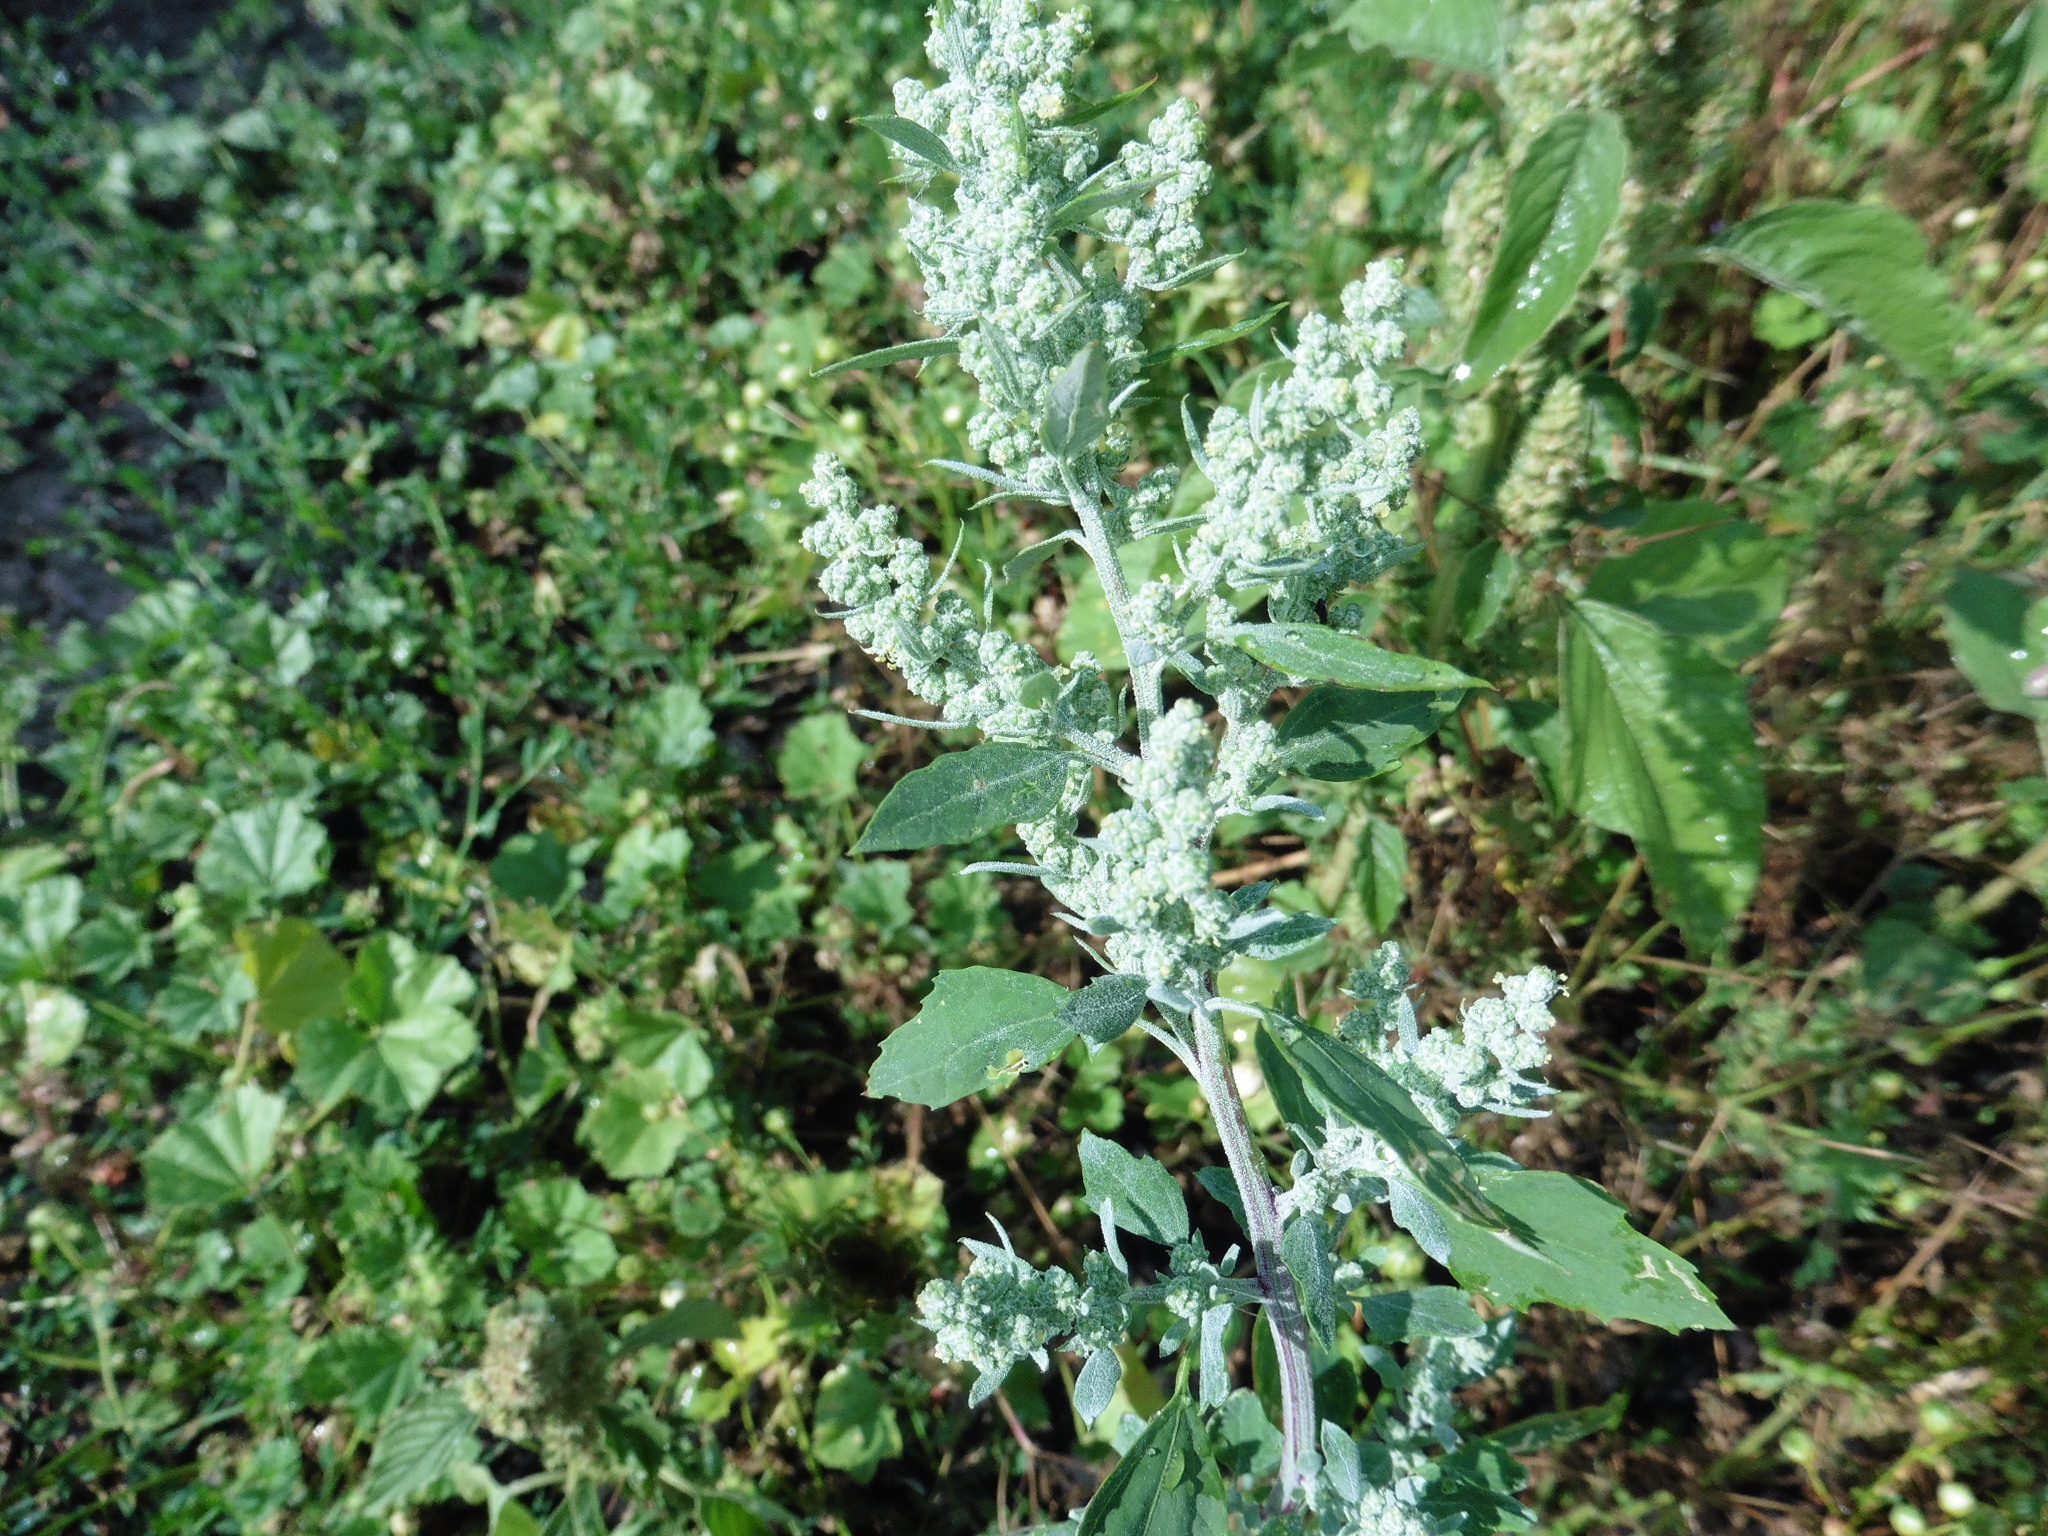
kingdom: Plantae
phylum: Tracheophyta
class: Magnoliopsida
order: Caryophyllales
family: Amaranthaceae
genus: Chenopodium
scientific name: Chenopodium album
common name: Fat-hen
